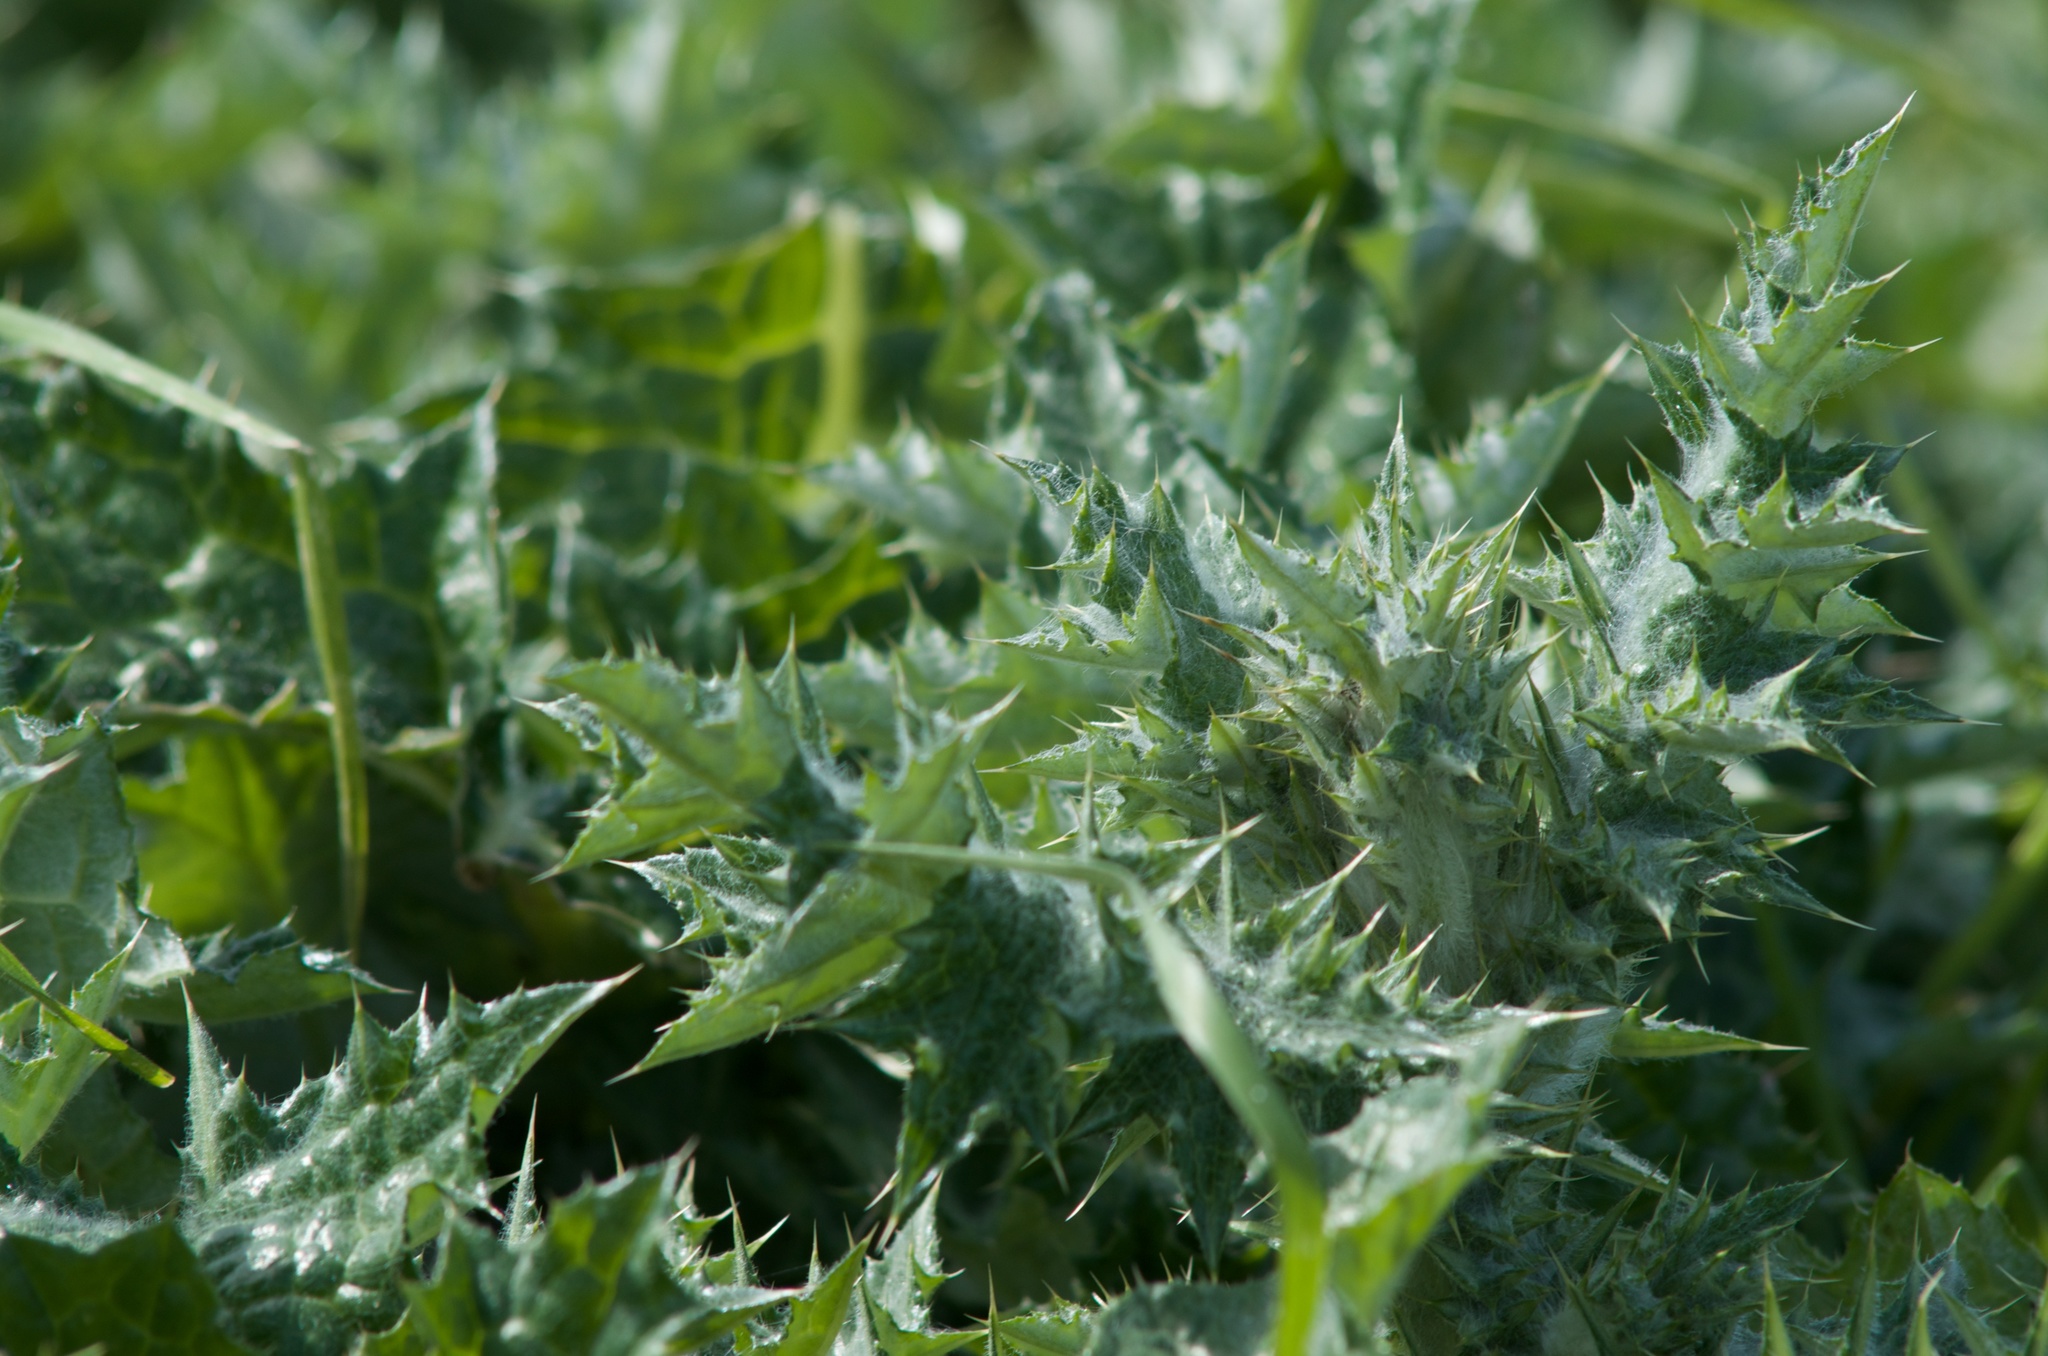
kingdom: Plantae
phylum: Tracheophyta
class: Magnoliopsida
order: Asterales
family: Asteraceae
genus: Silybum
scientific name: Silybum marianum
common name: Milk thistle
